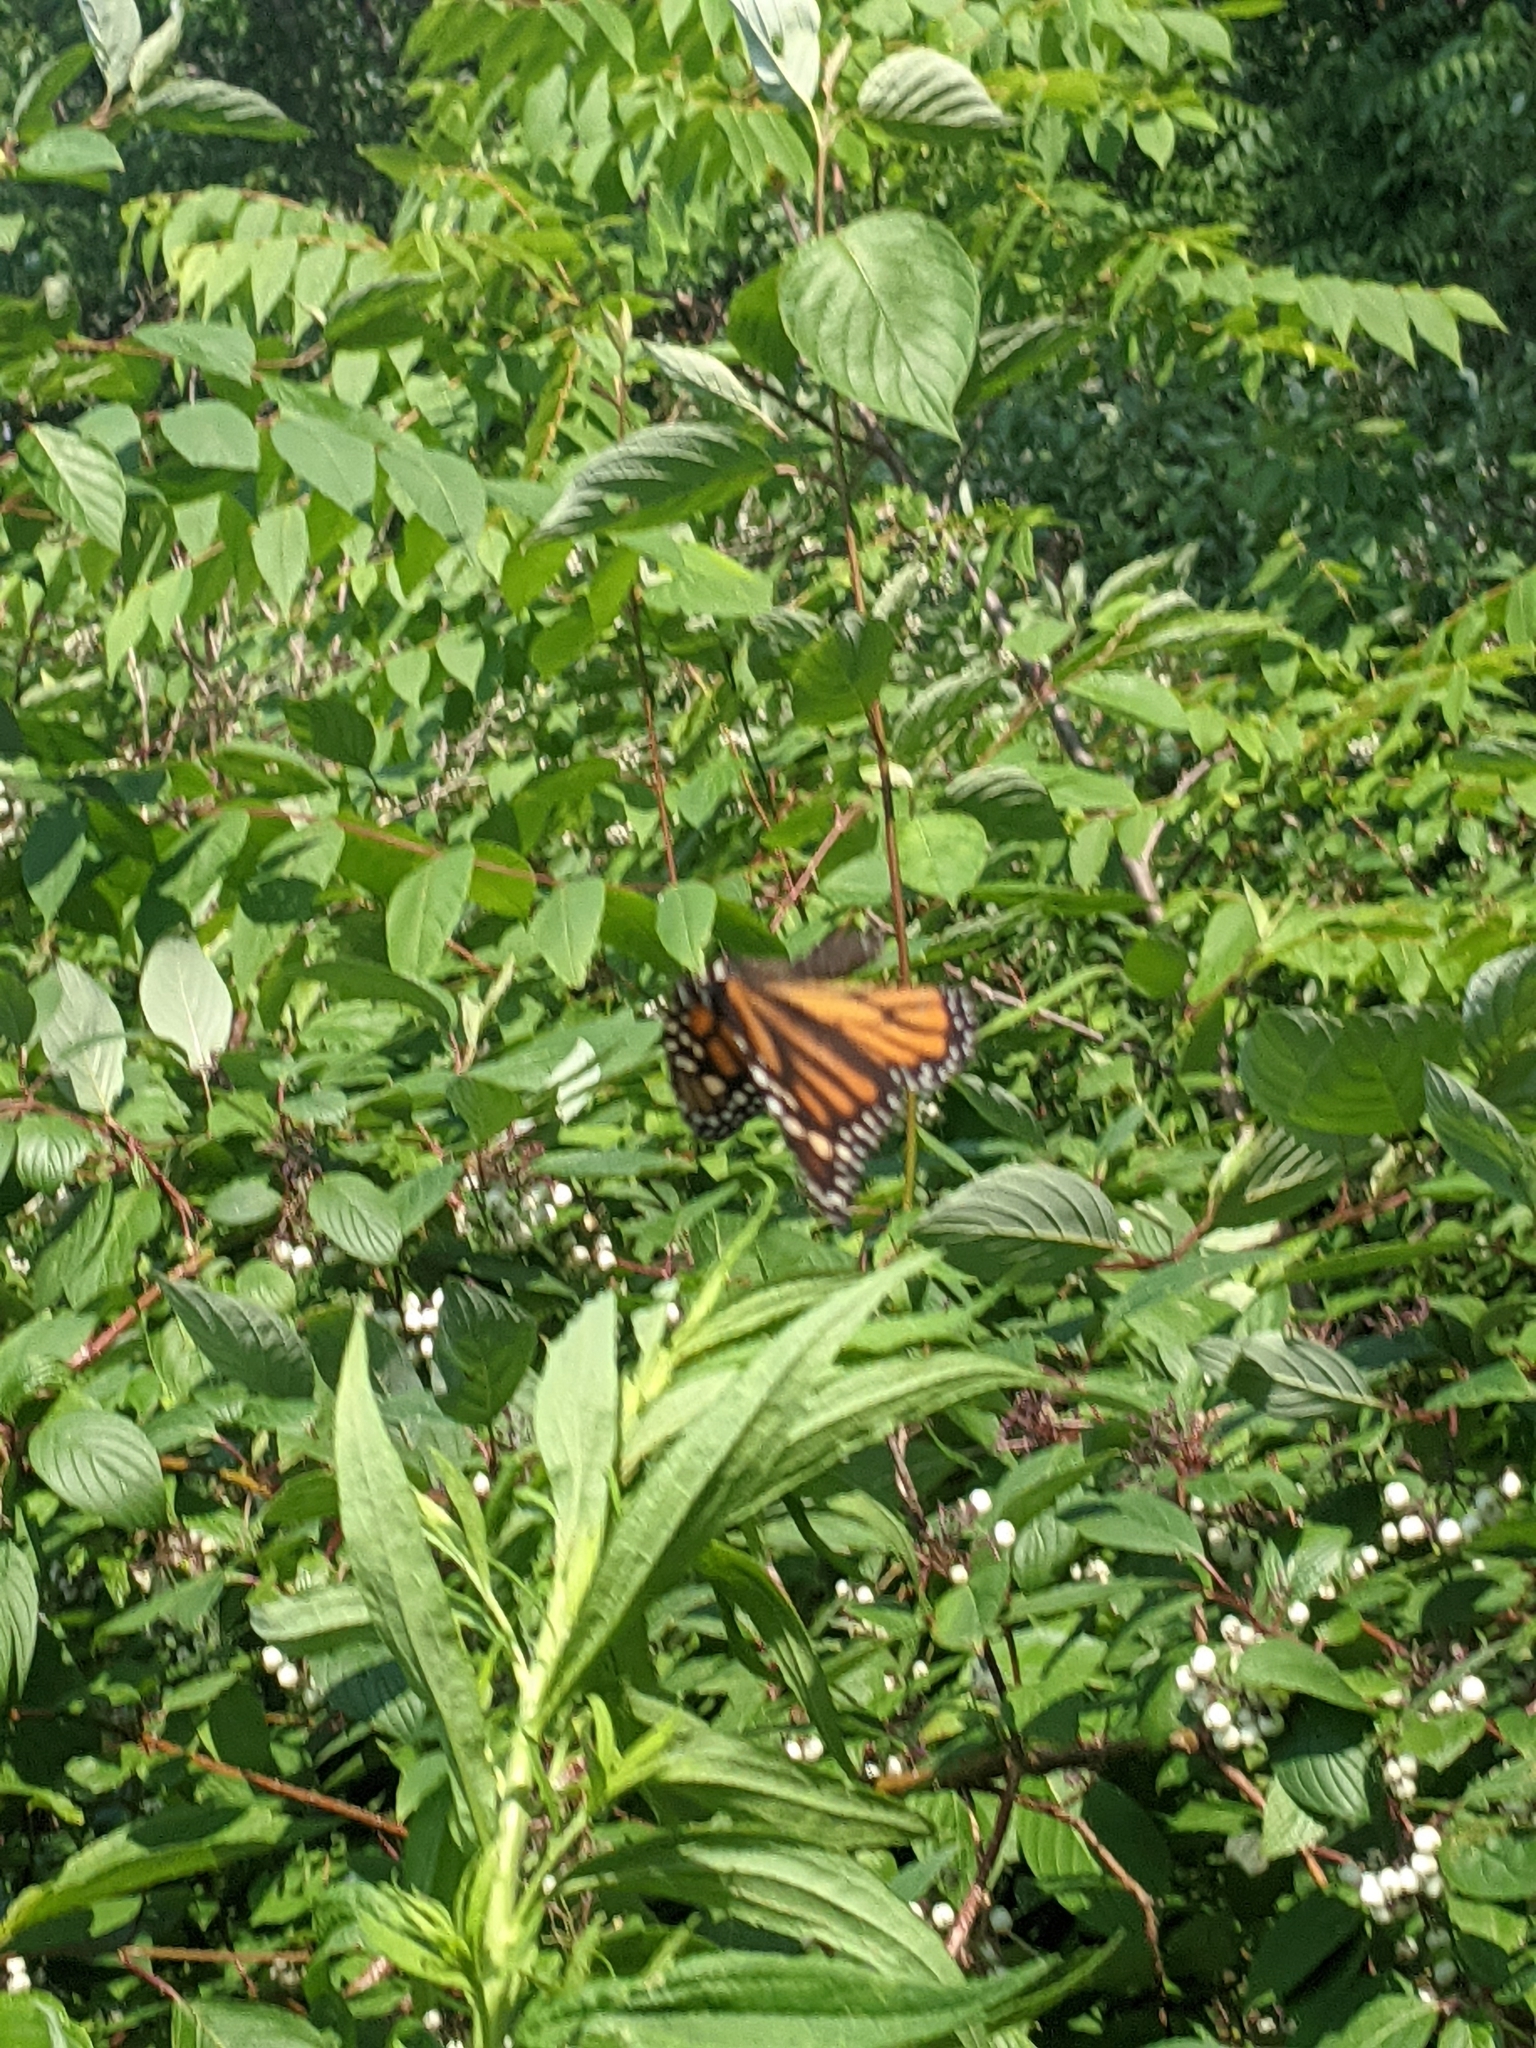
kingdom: Animalia
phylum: Arthropoda
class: Insecta
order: Lepidoptera
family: Nymphalidae
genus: Danaus
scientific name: Danaus plexippus
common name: Monarch
